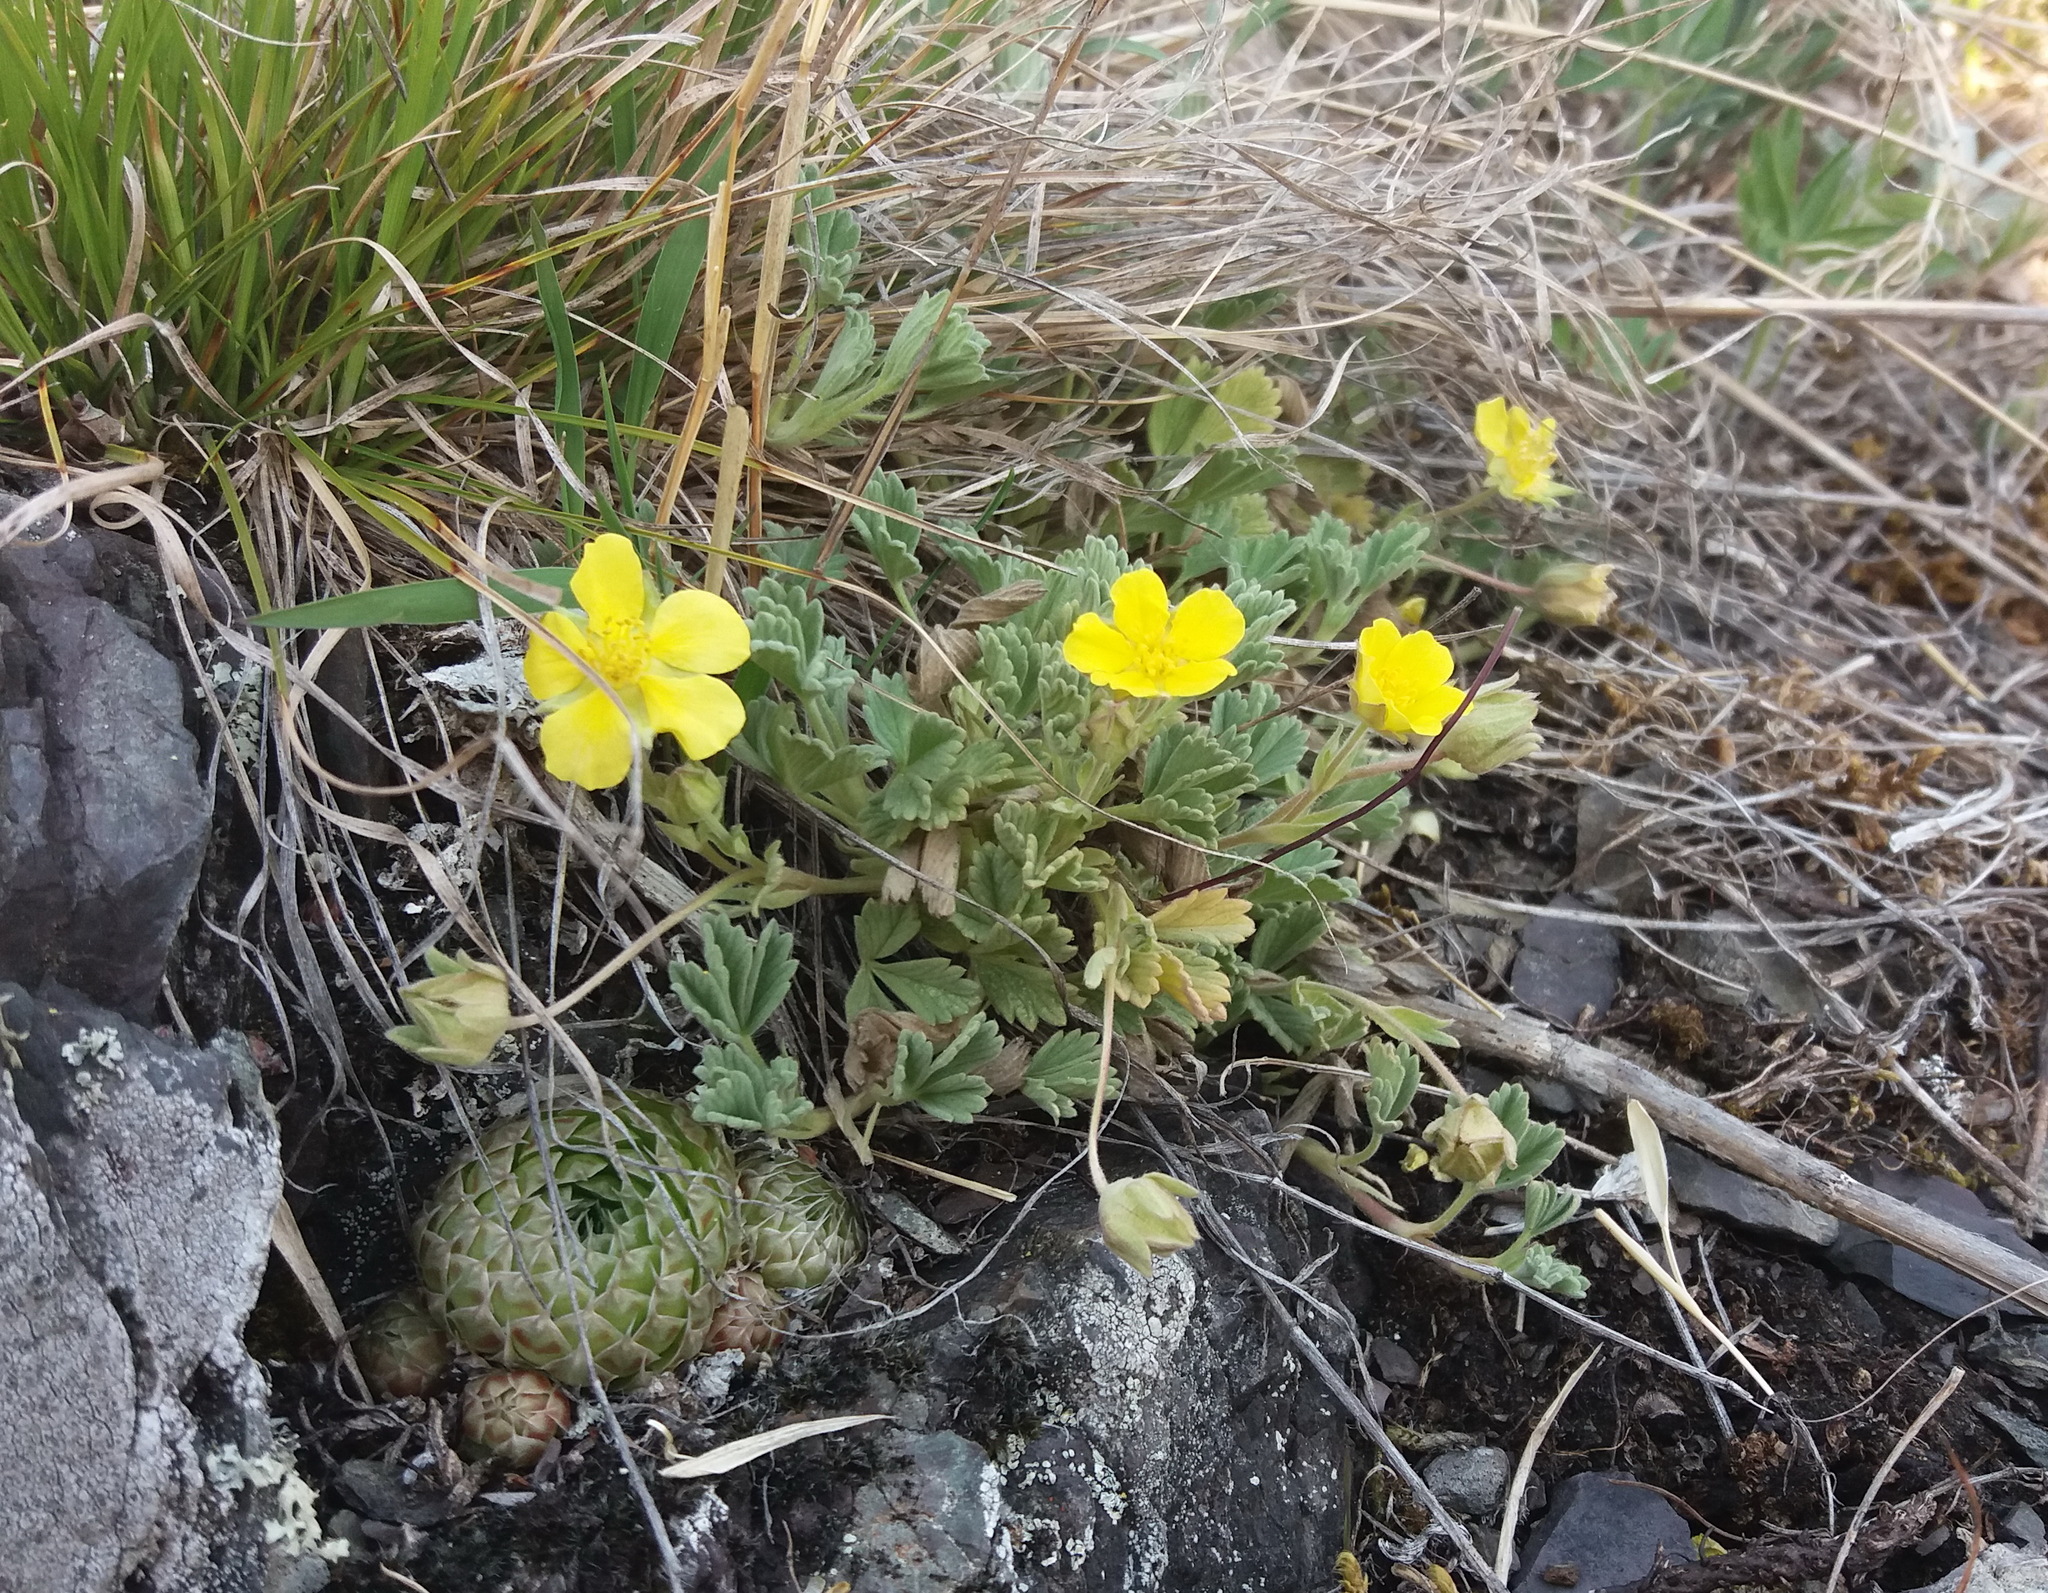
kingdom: Plantae
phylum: Tracheophyta
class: Magnoliopsida
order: Rosales
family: Rosaceae
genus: Potentilla
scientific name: Potentilla acaulis
